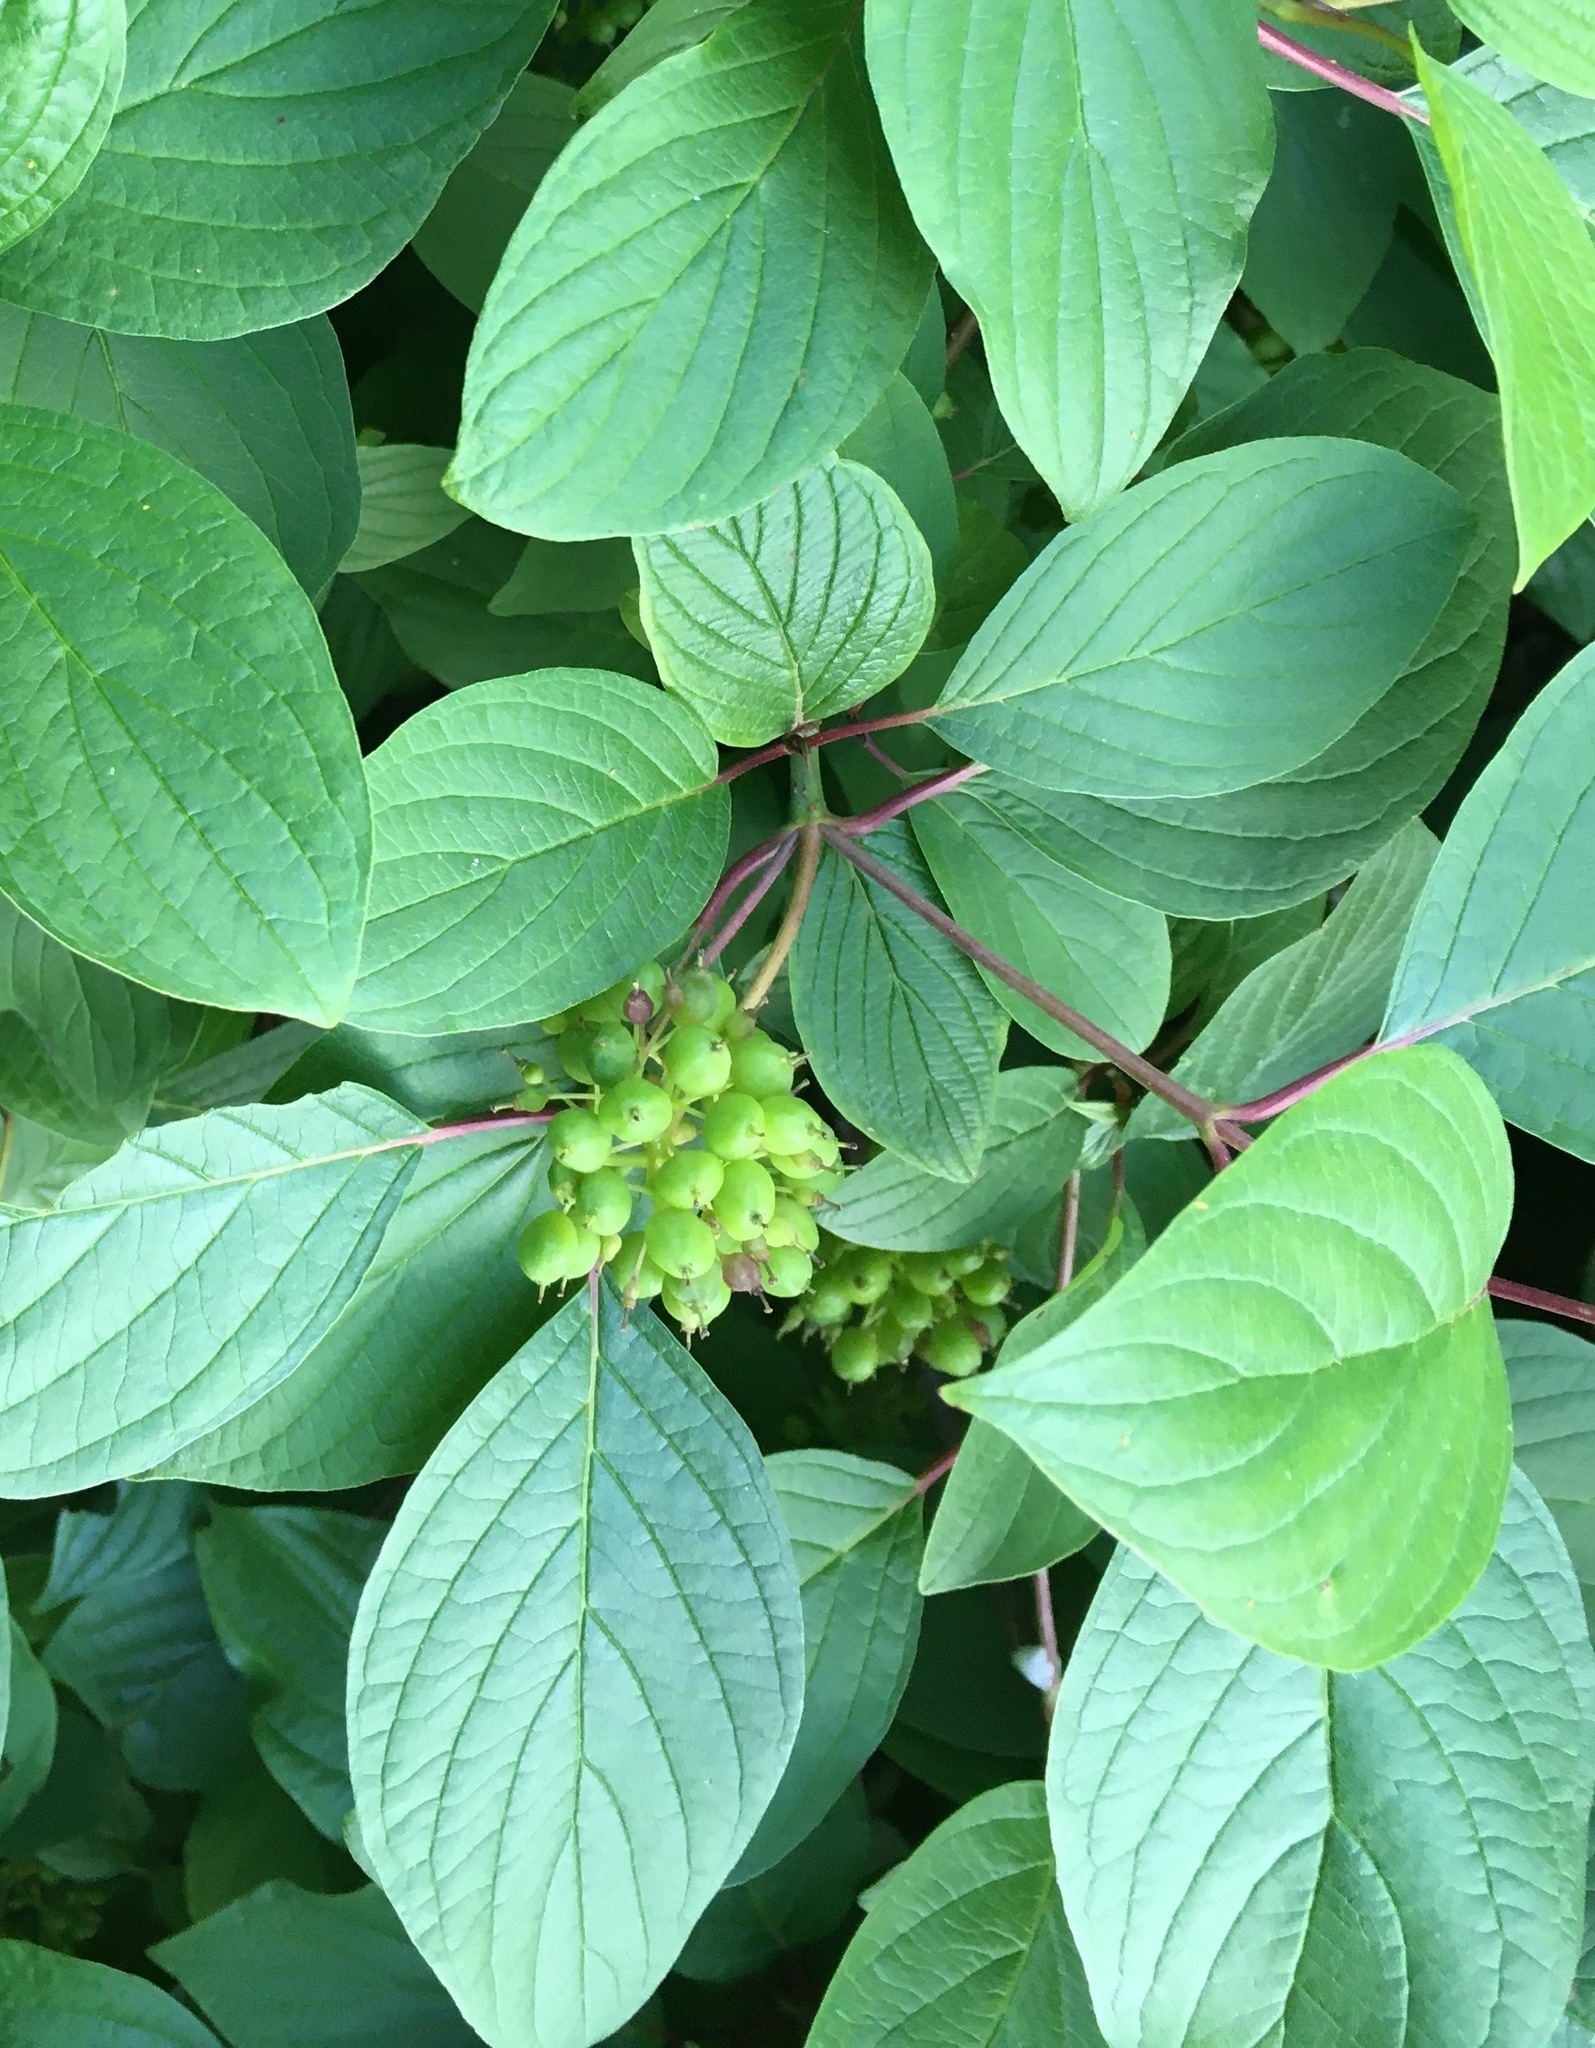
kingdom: Plantae
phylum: Tracheophyta
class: Magnoliopsida
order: Cornales
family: Cornaceae
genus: Cornus
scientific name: Cornus sericea
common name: Red-osier dogwood
